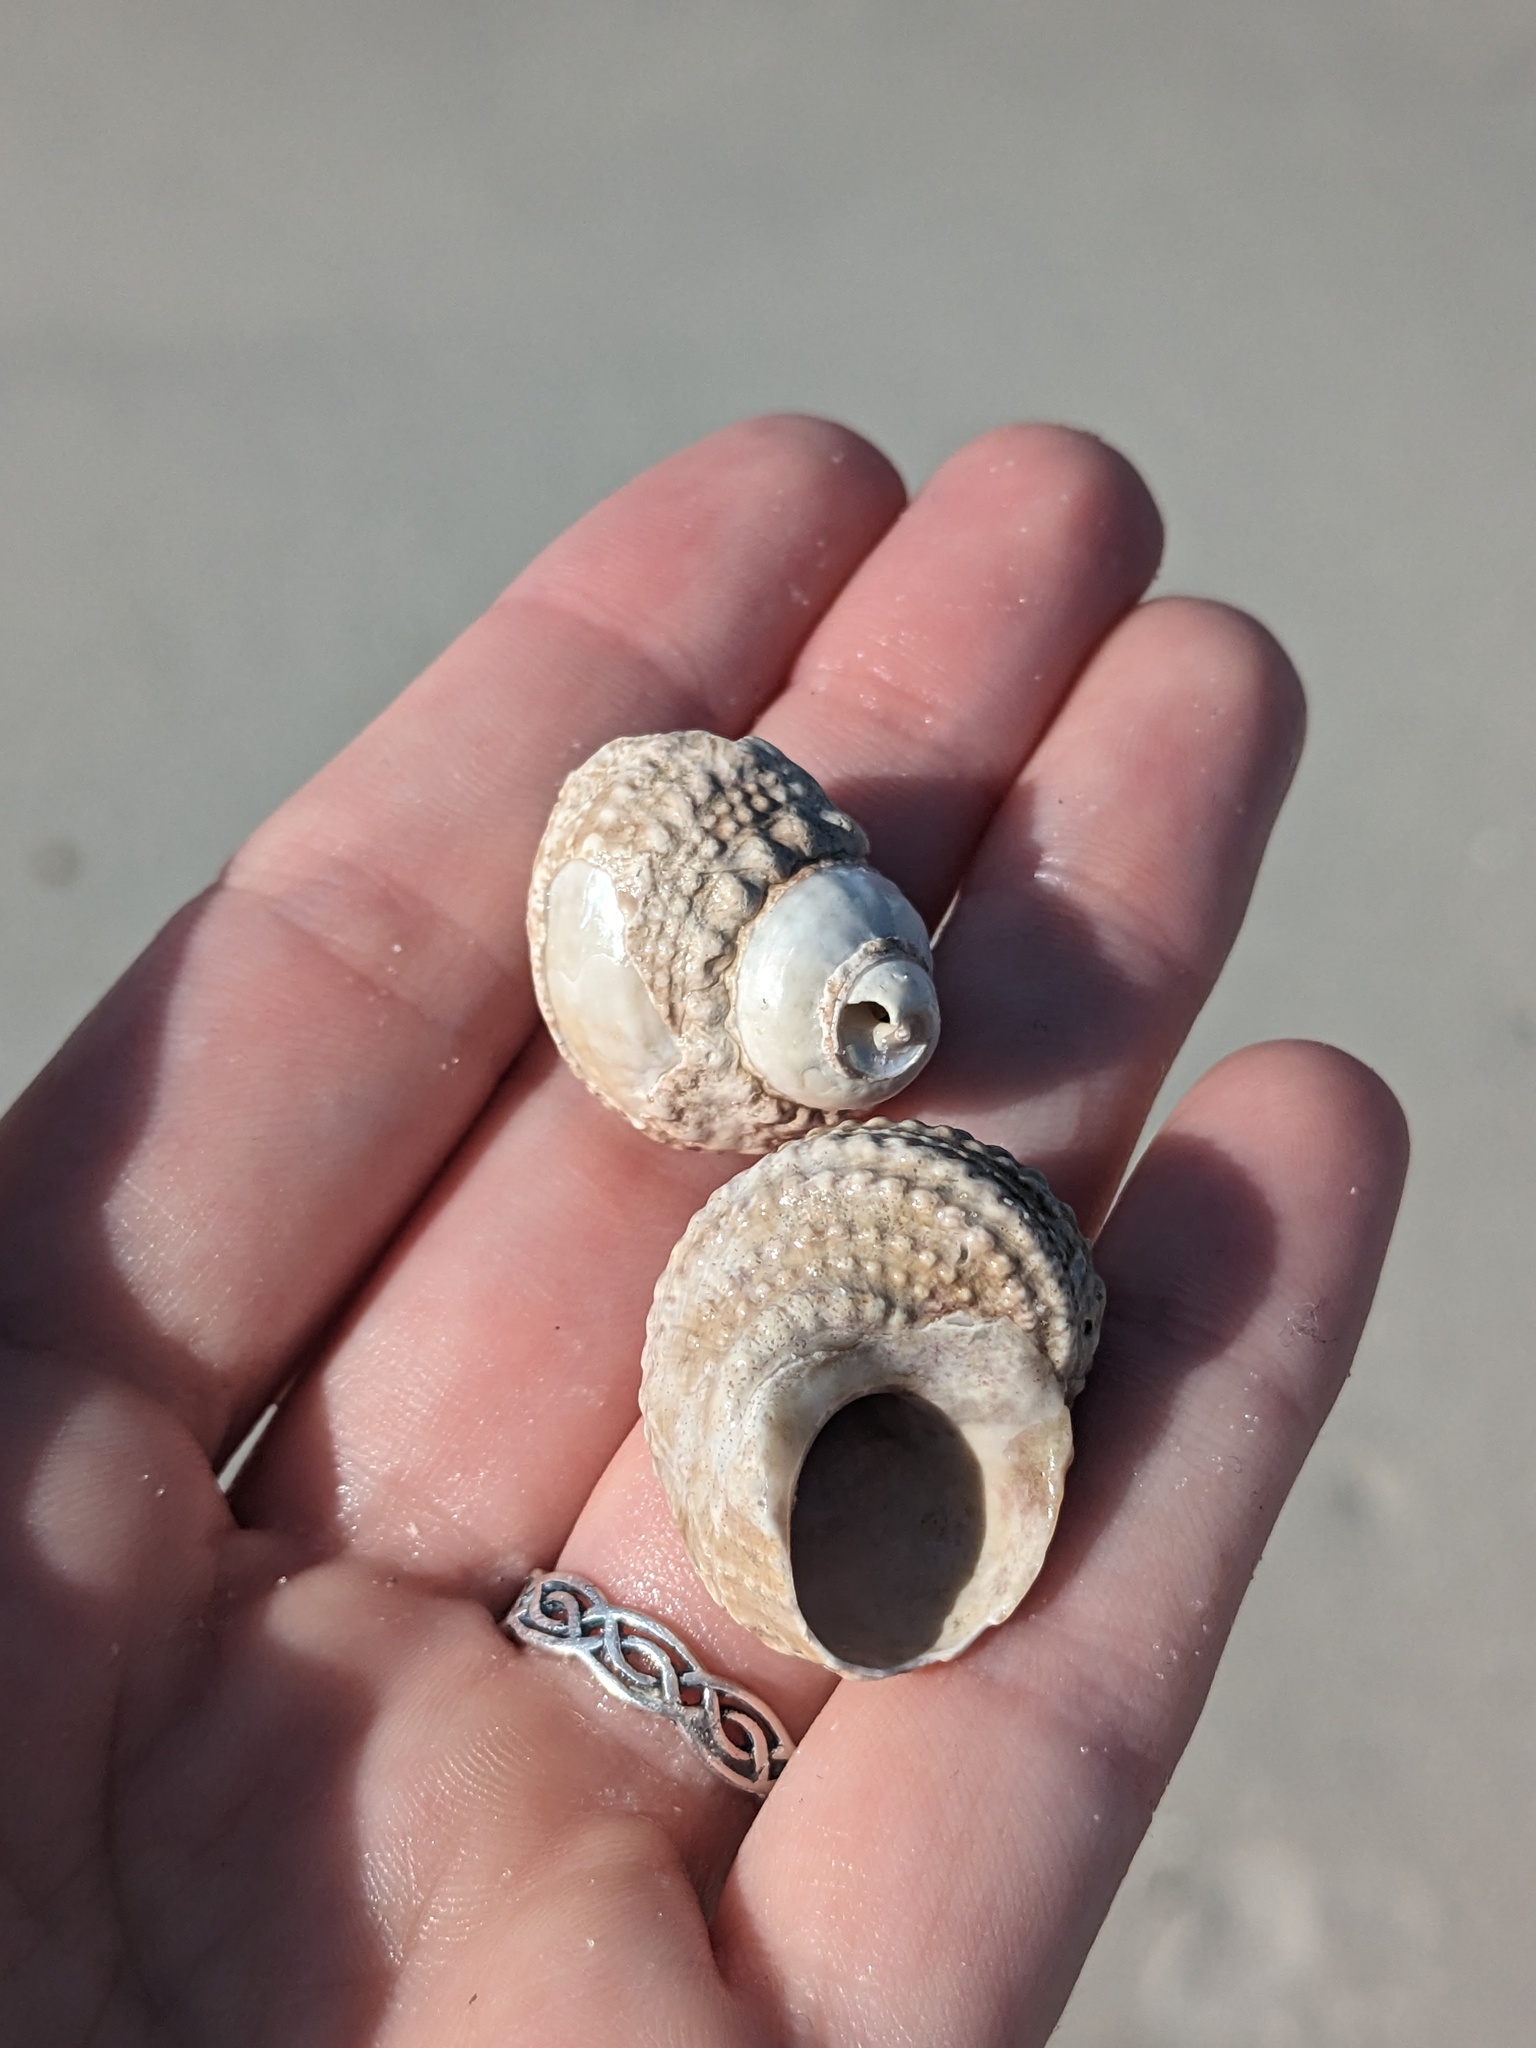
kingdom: Animalia
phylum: Mollusca
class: Gastropoda
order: Trochida
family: Turbinidae
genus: Turbo
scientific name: Turbo castanea
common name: Chestnut turban
